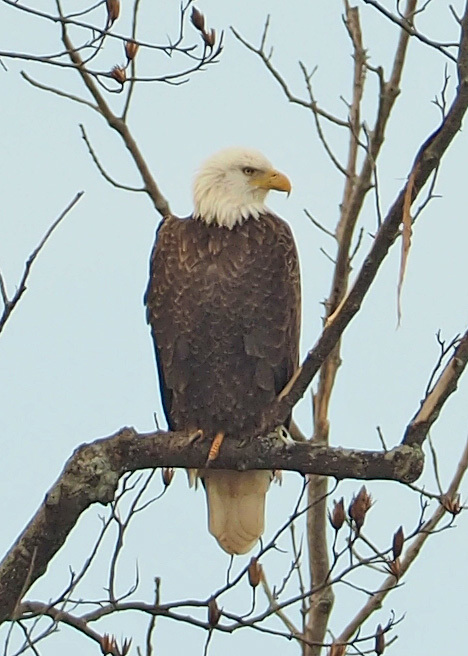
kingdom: Animalia
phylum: Chordata
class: Aves
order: Accipitriformes
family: Accipitridae
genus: Haliaeetus
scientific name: Haliaeetus leucocephalus
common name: Bald eagle
